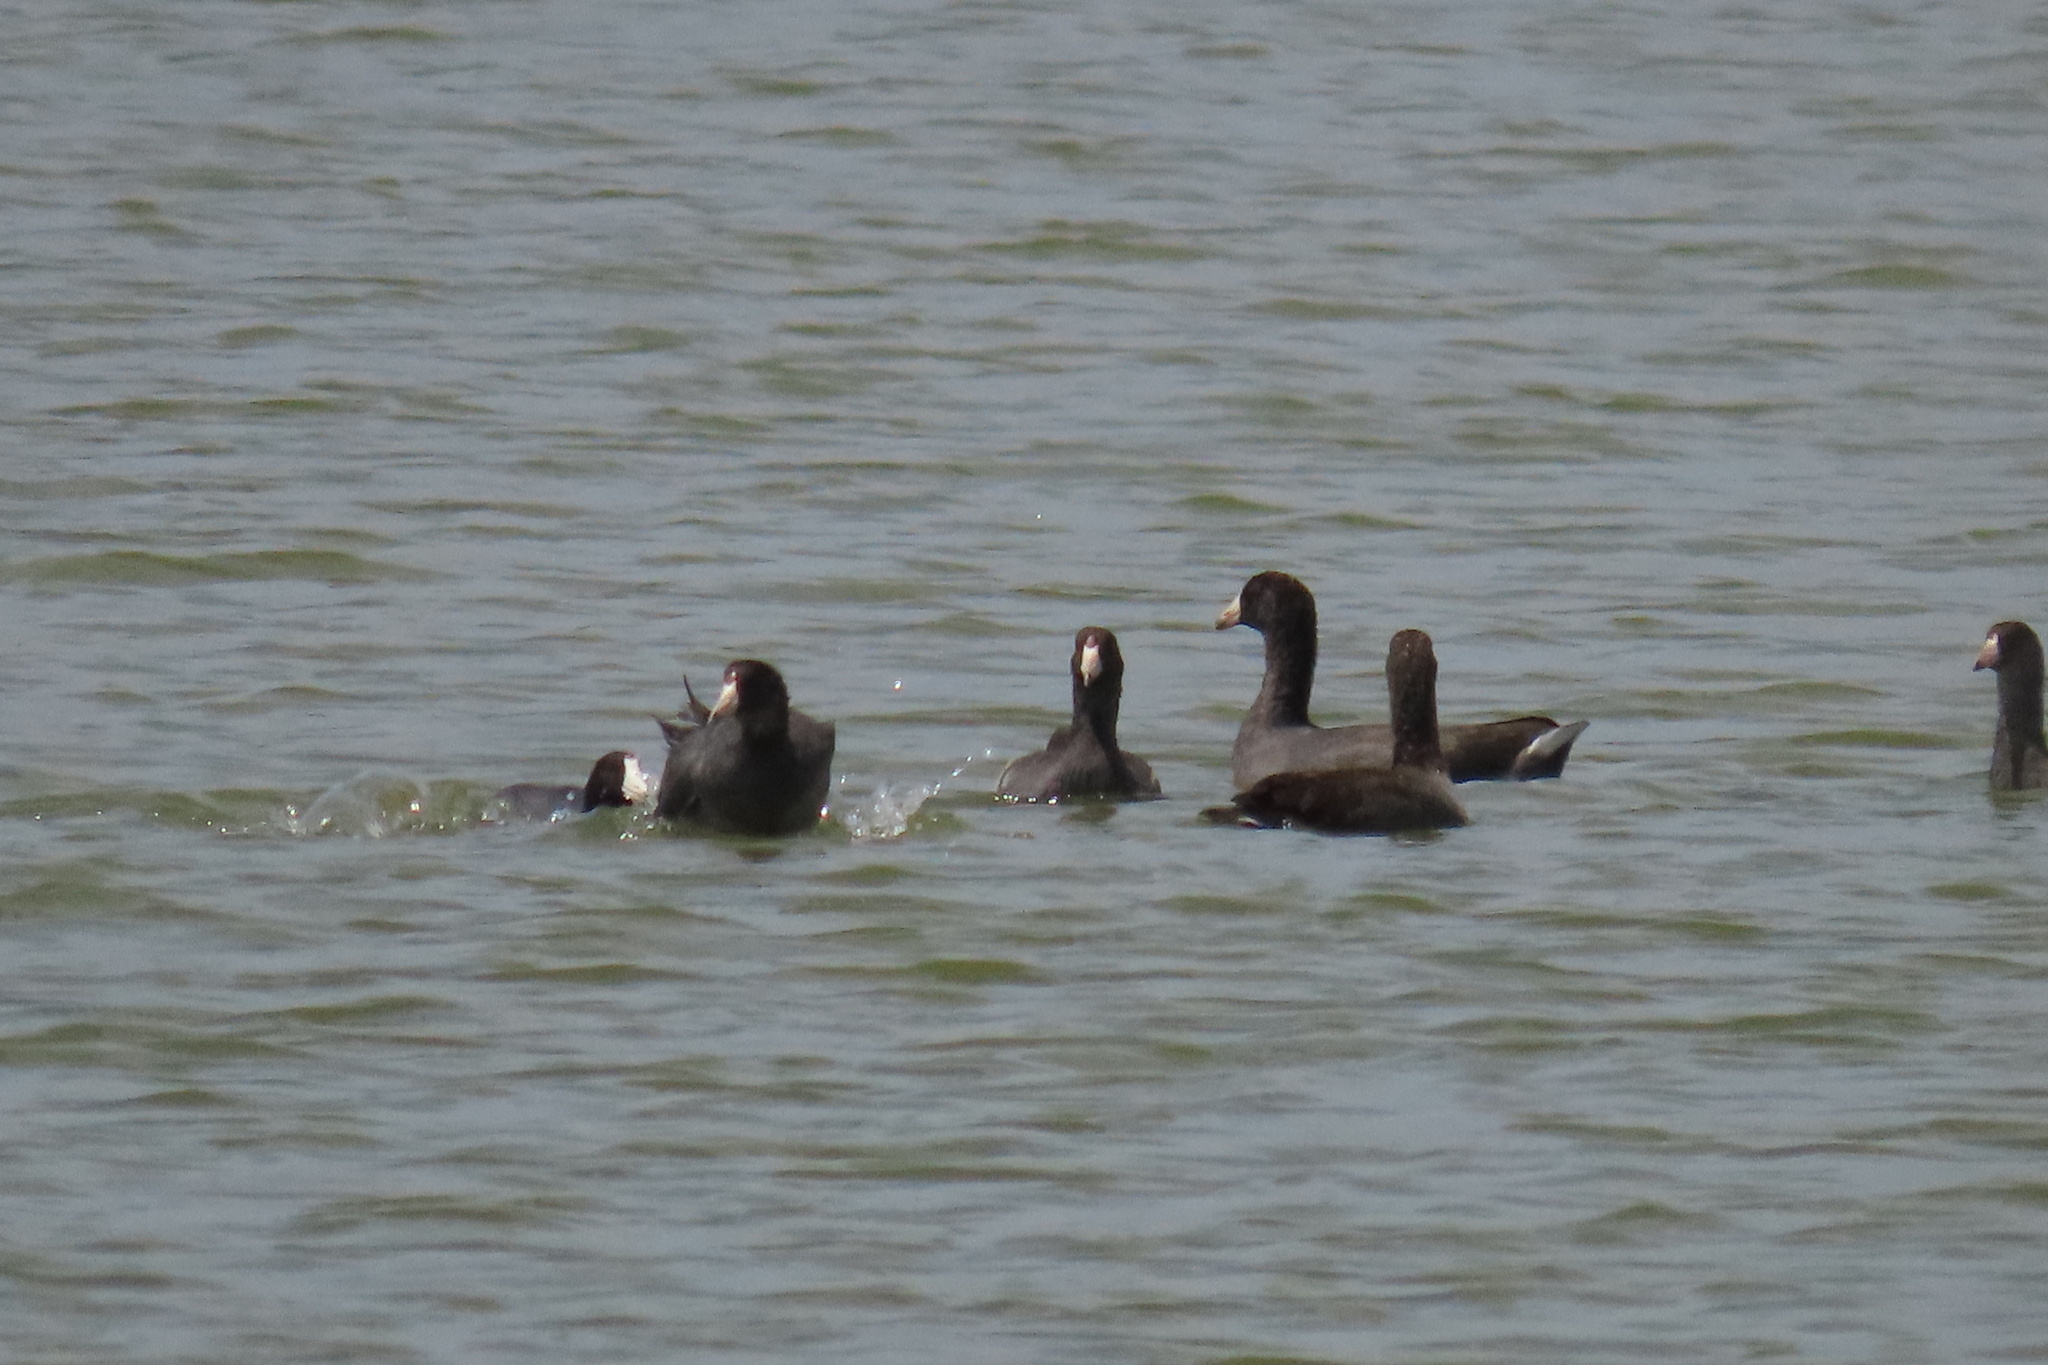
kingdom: Animalia
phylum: Chordata
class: Aves
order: Gruiformes
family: Rallidae
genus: Fulica
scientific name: Fulica americana
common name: American coot
